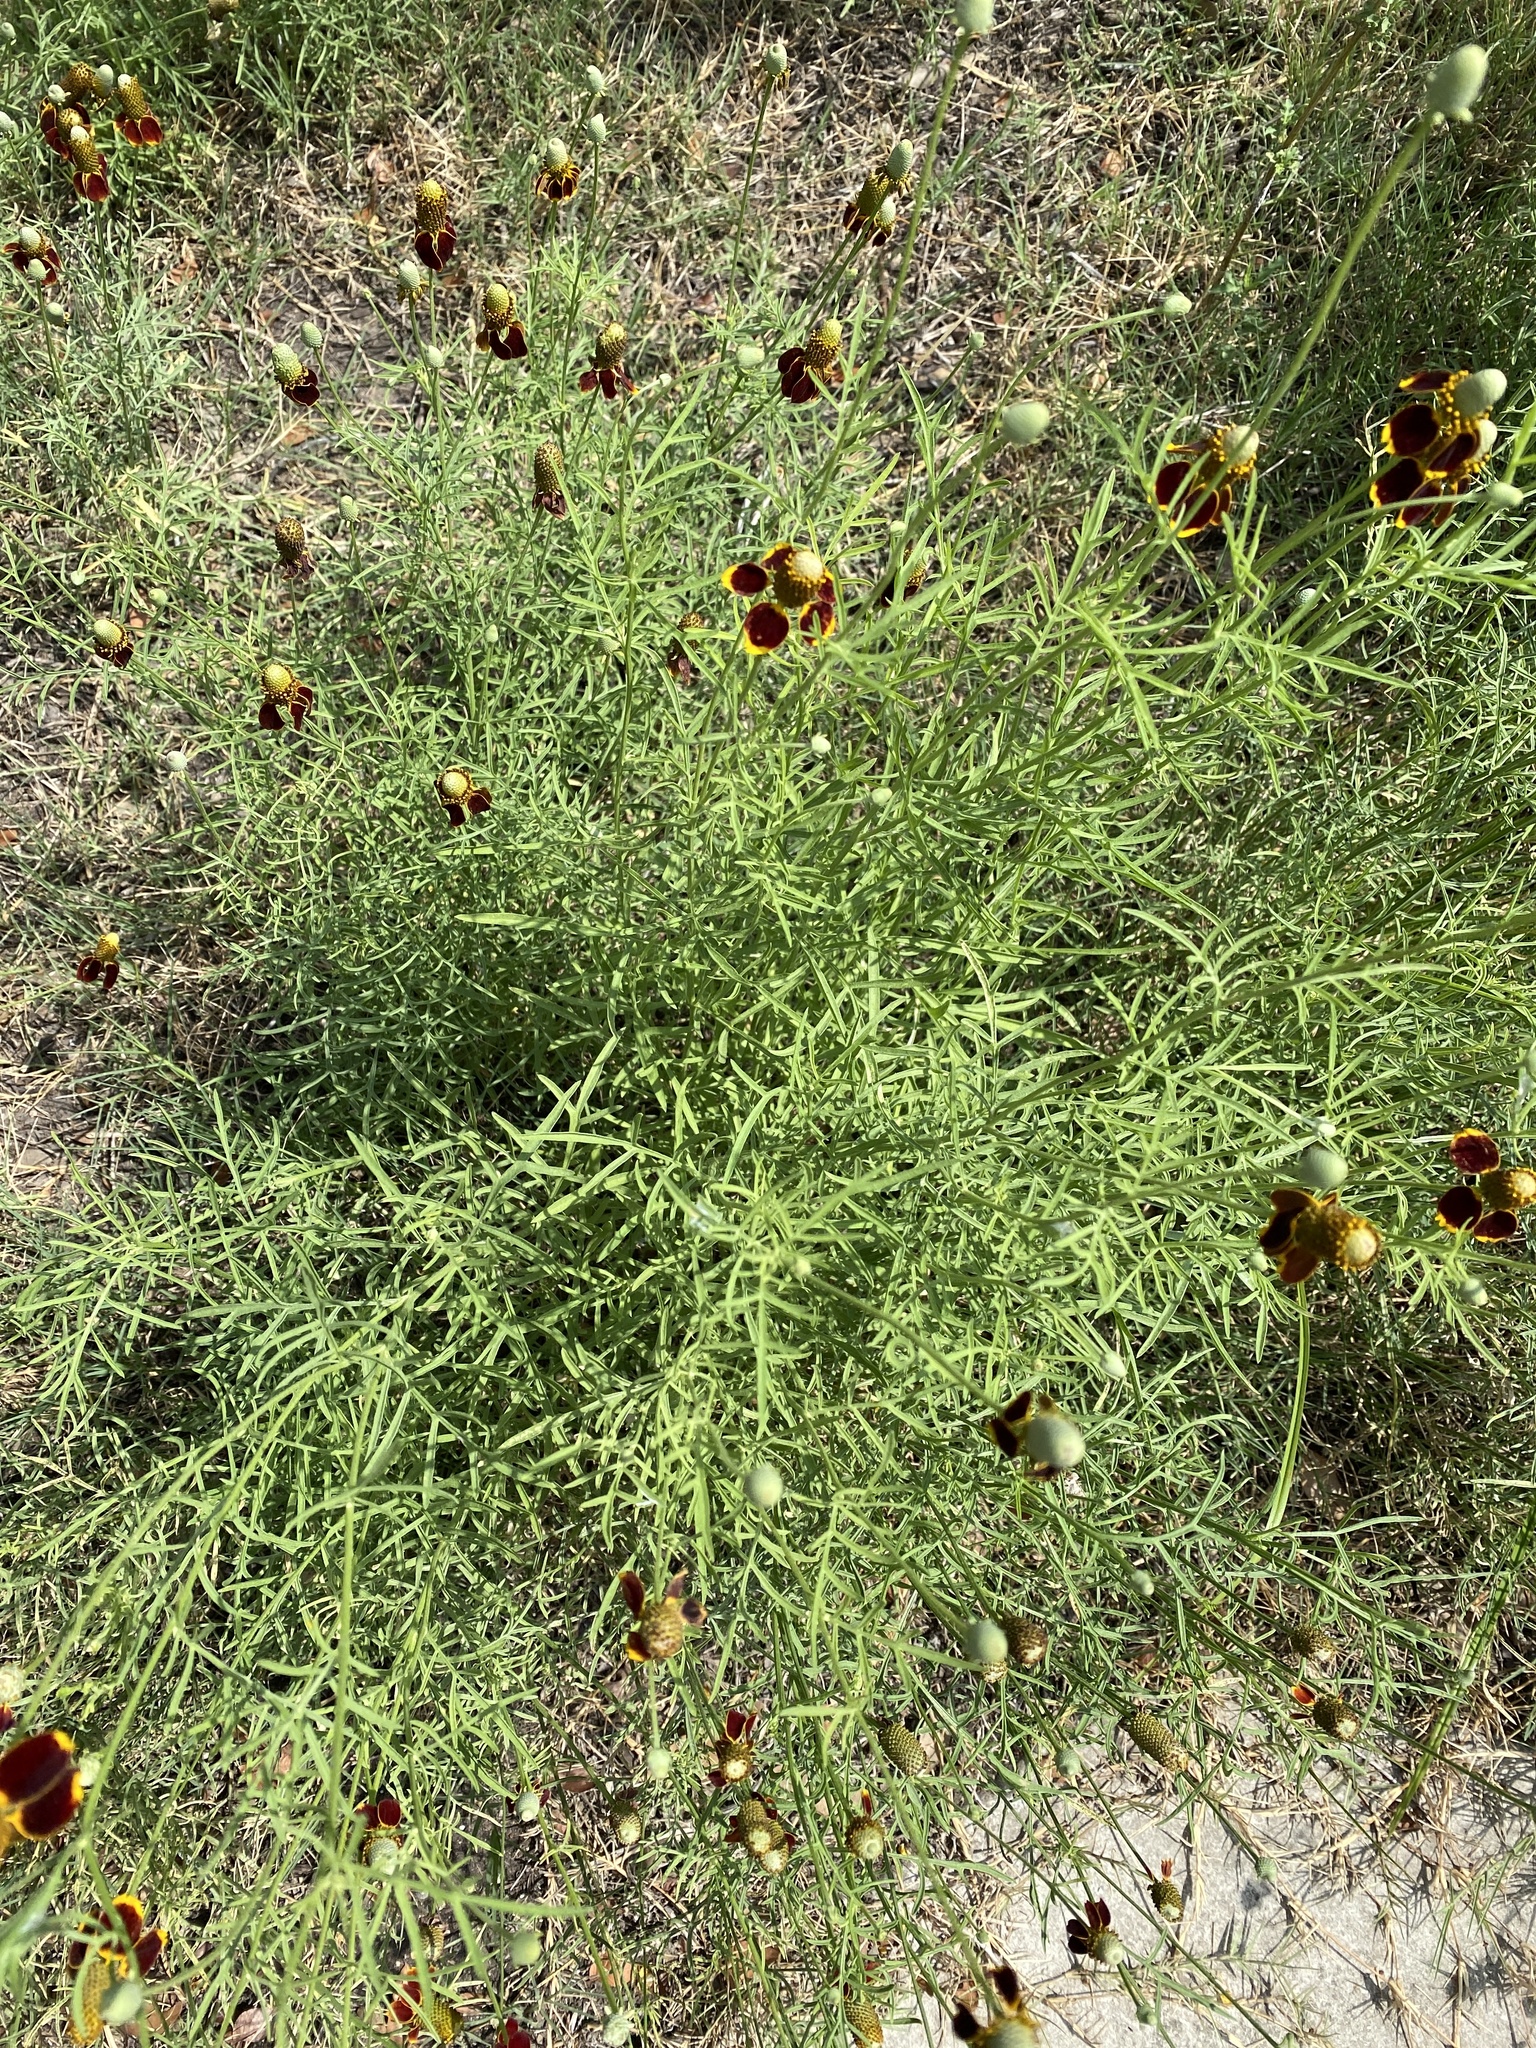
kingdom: Plantae
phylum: Tracheophyta
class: Magnoliopsida
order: Asterales
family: Asteraceae
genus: Ratibida
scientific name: Ratibida columnifera
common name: Prairie coneflower
